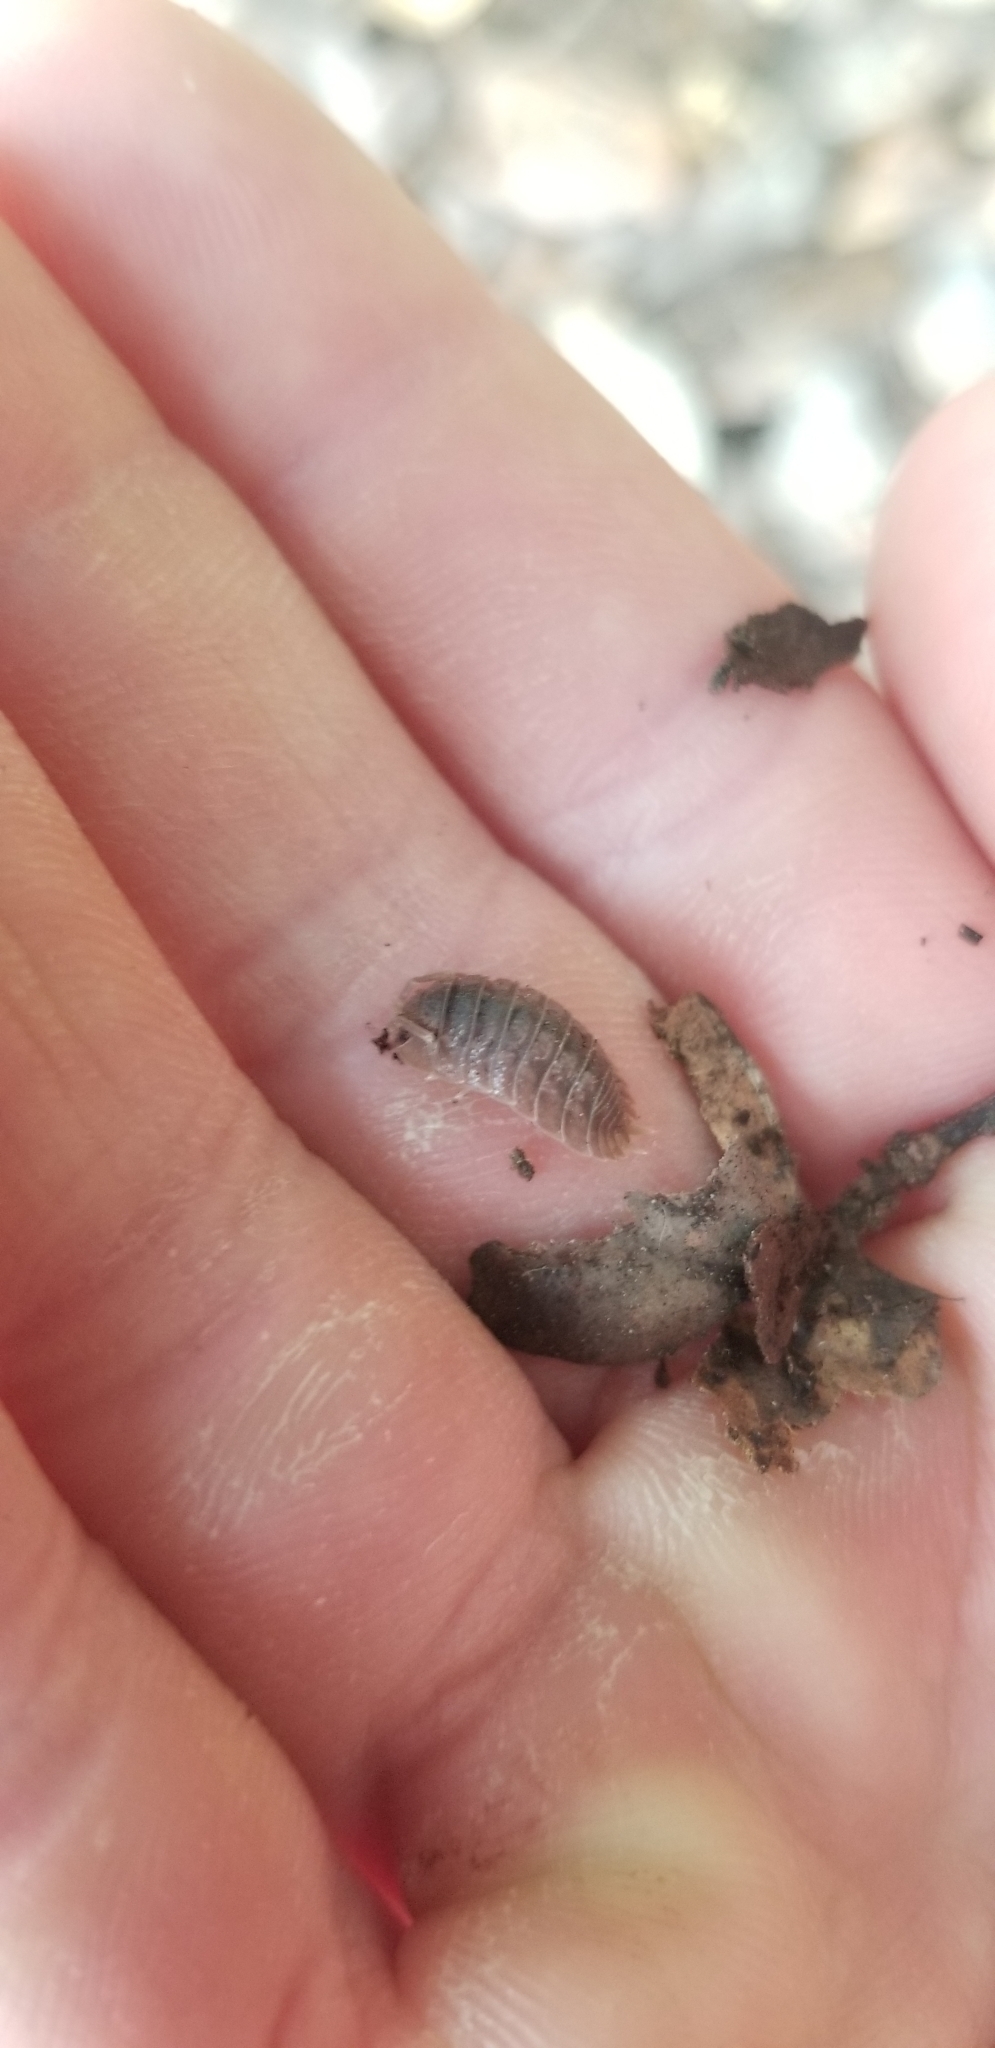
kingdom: Animalia
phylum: Arthropoda
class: Malacostraca
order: Isopoda
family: Porcellionidae
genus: Porcellio
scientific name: Porcellio dilatatus
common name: Isopod
